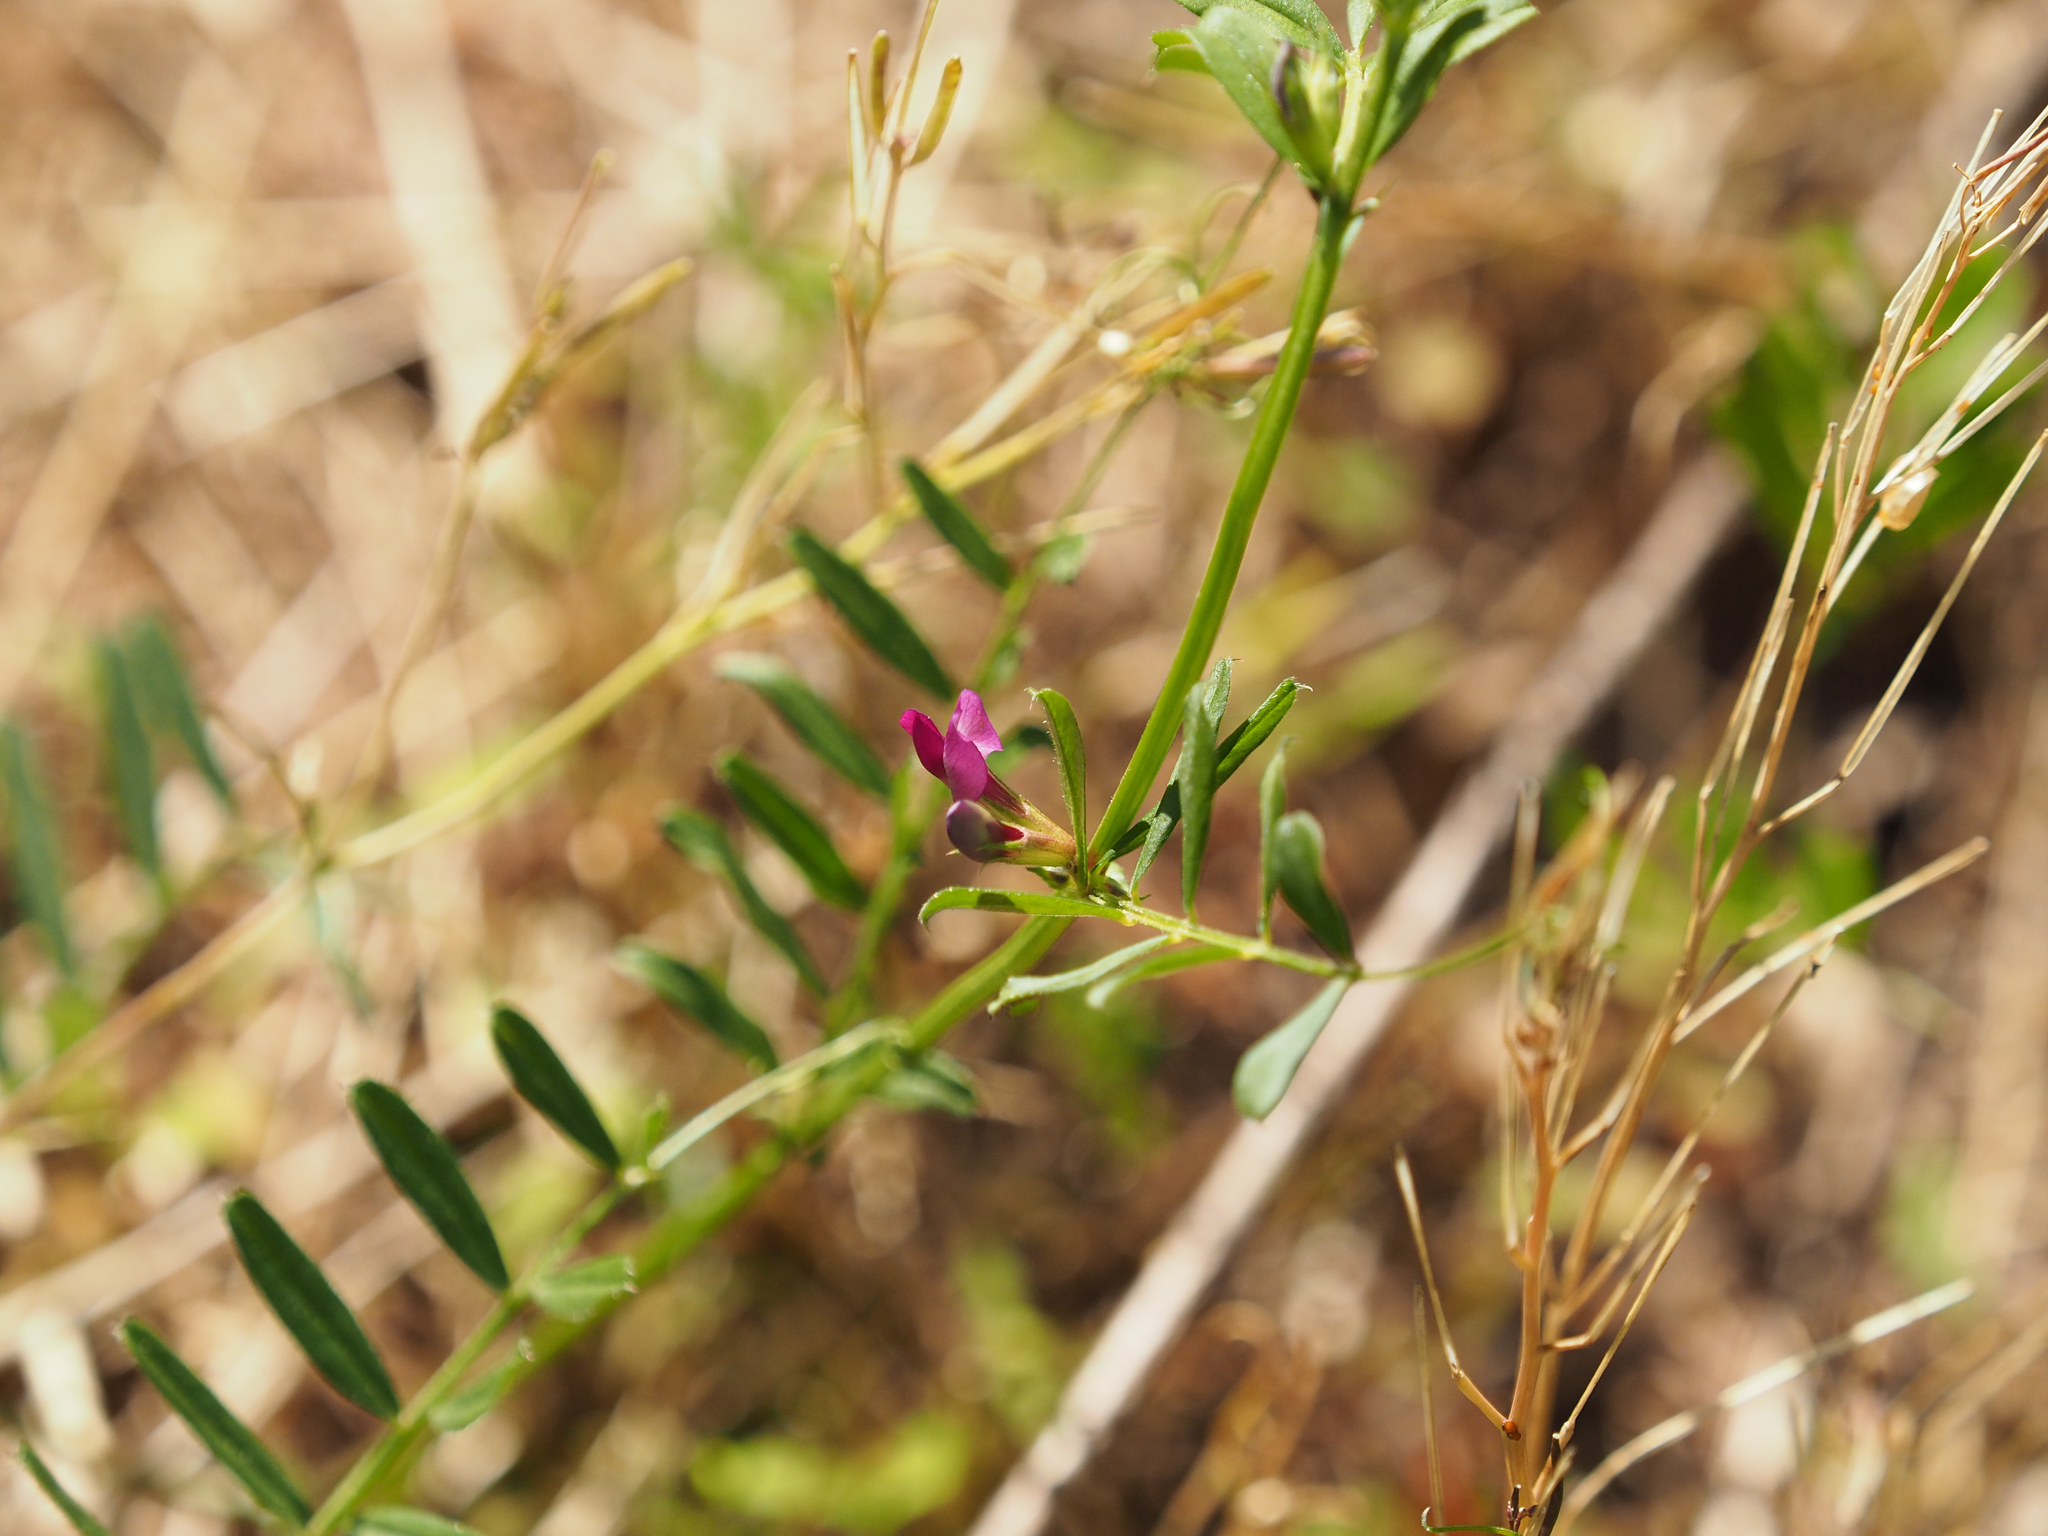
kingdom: Plantae
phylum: Tracheophyta
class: Magnoliopsida
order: Fabales
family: Fabaceae
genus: Vicia
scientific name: Vicia sativa
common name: Garden vetch
